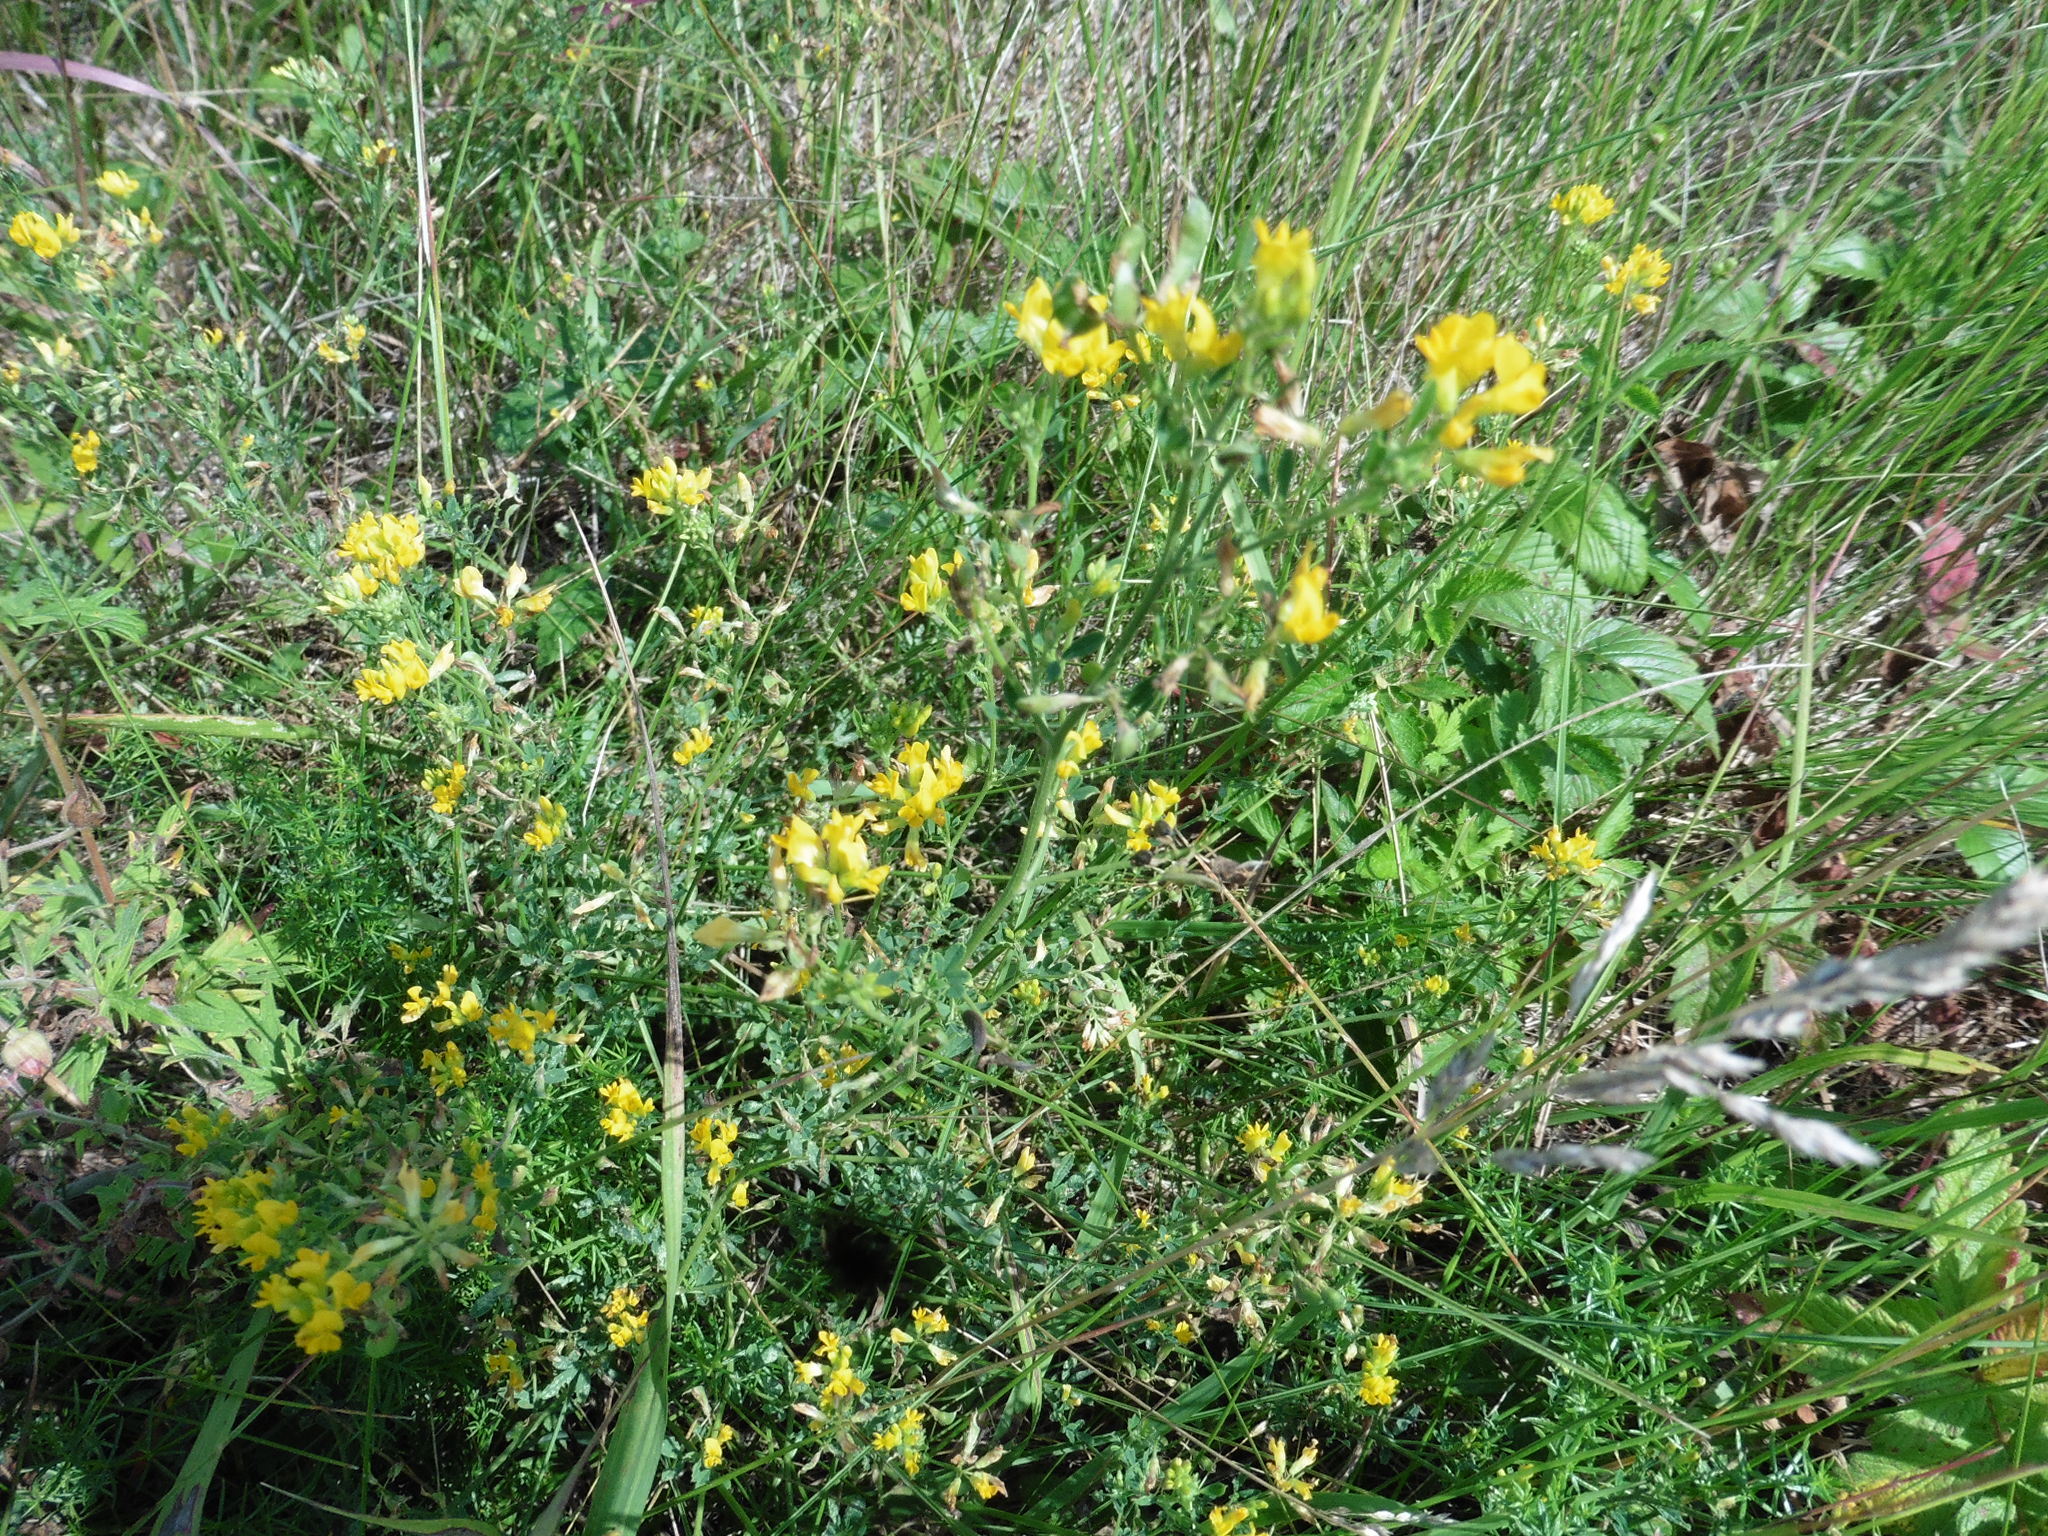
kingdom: Plantae
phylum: Tracheophyta
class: Magnoliopsida
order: Fabales
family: Fabaceae
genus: Medicago
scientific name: Medicago falcata
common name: Sickle medick
